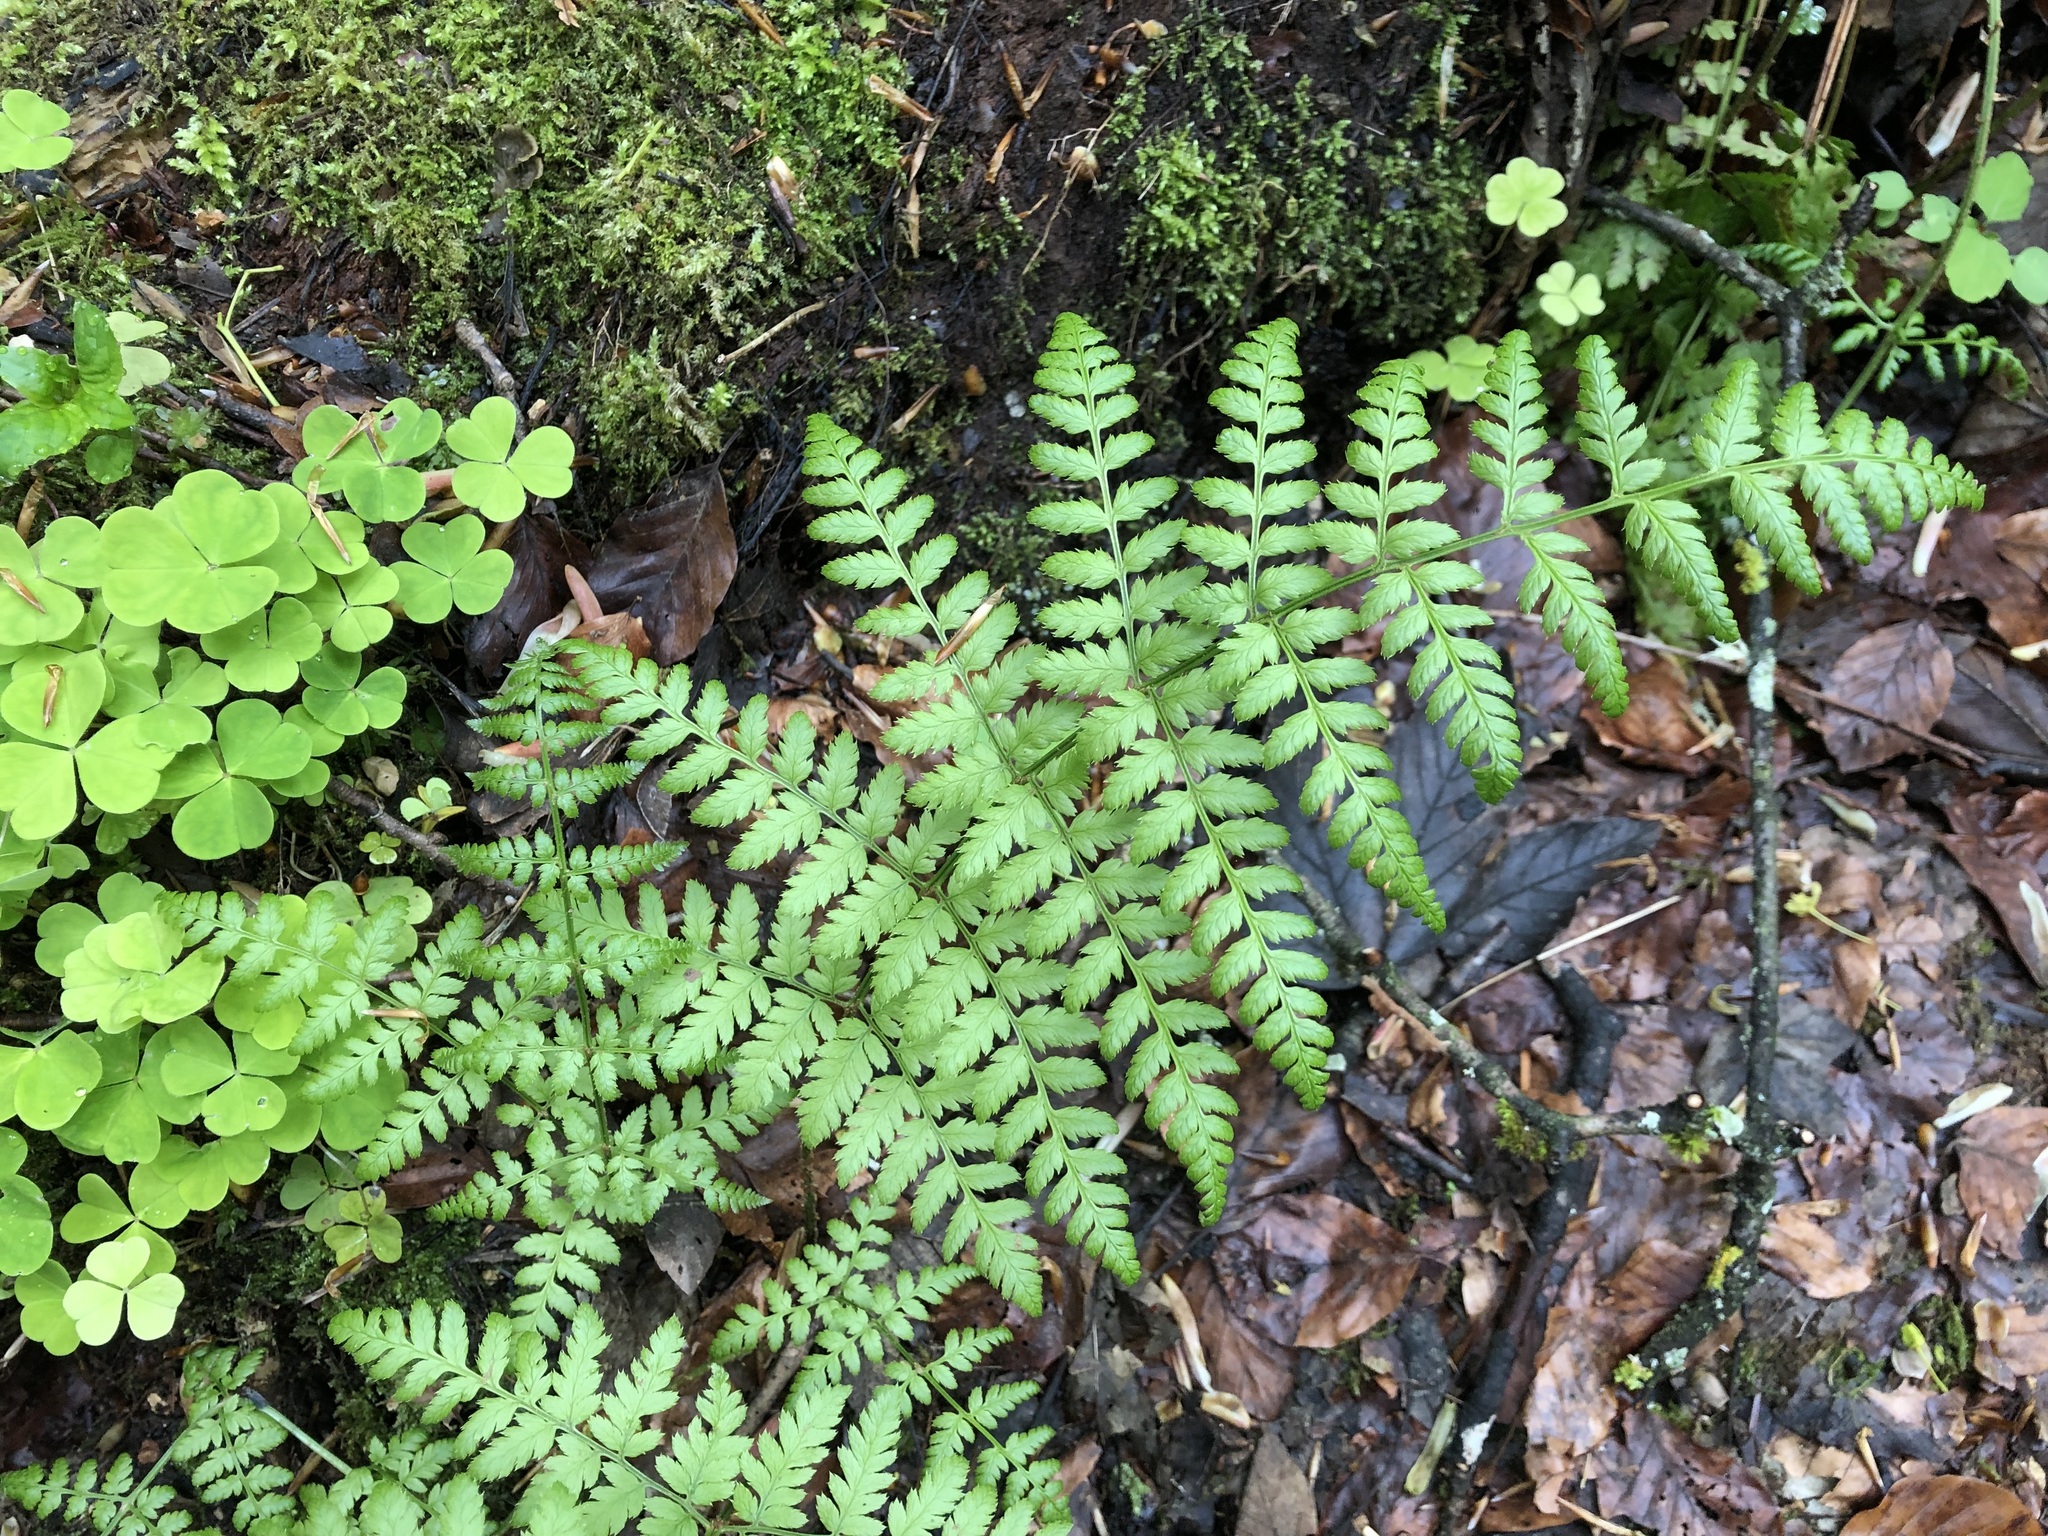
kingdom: Plantae
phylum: Tracheophyta
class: Polypodiopsida
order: Polypodiales
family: Dryopteridaceae
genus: Dryopteris
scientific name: Dryopteris carthusiana
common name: Narrow buckler-fern
